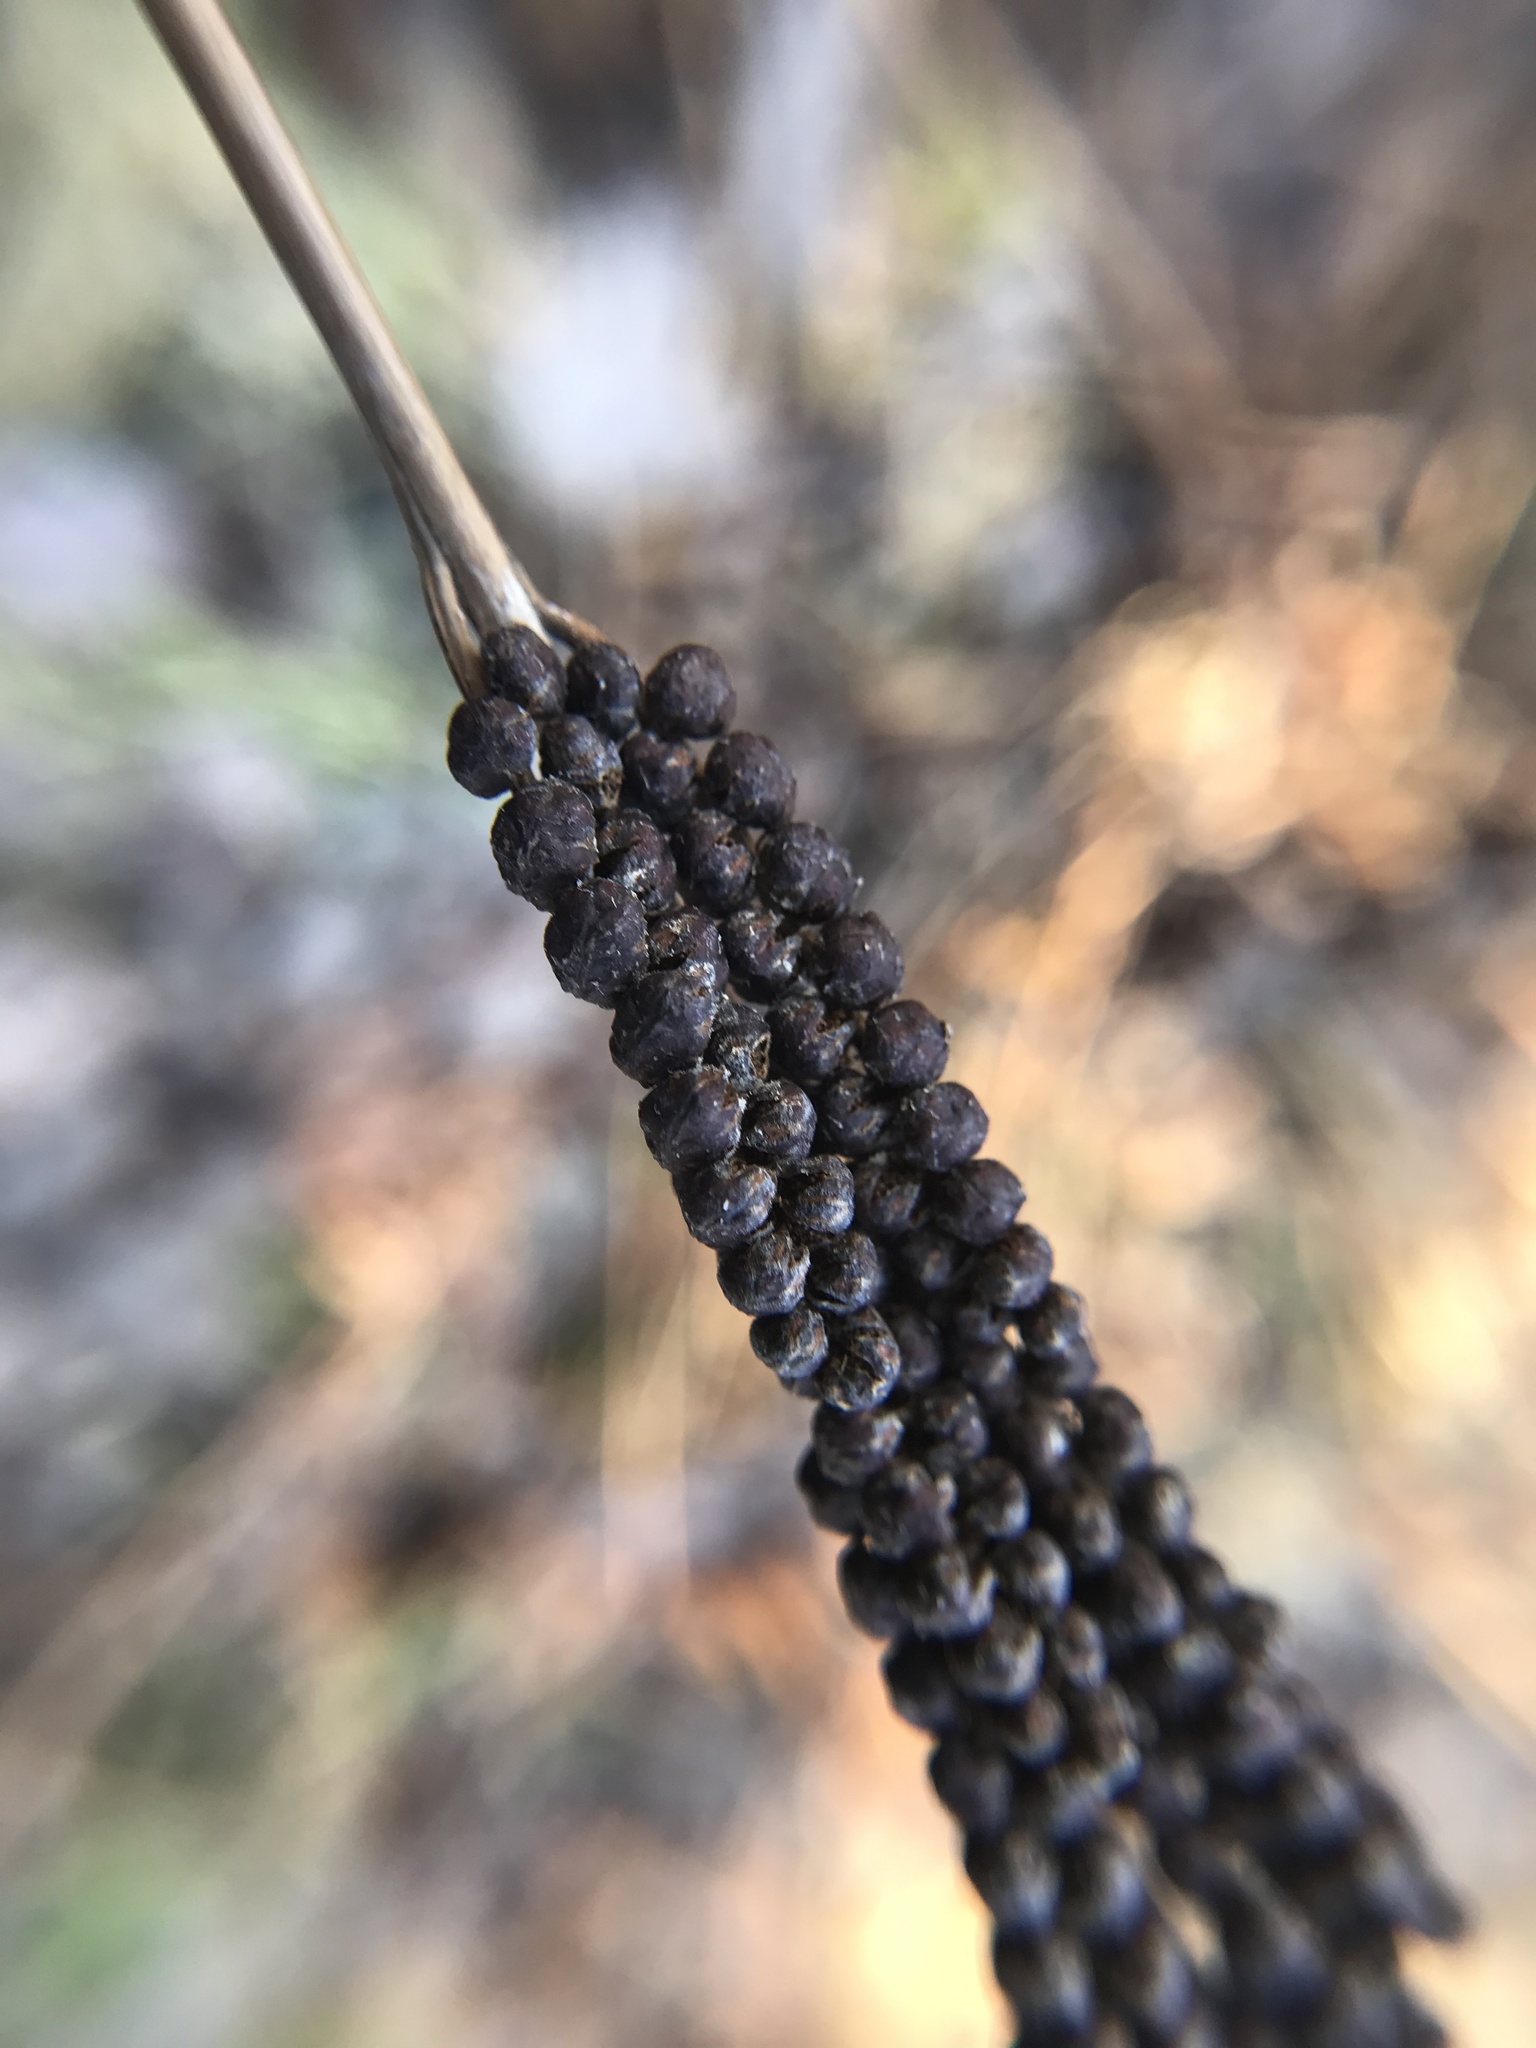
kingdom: Plantae
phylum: Tracheophyta
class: Polypodiopsida
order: Polypodiales
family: Onocleaceae
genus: Onoclea
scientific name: Onoclea sensibilis
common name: Sensitive fern
